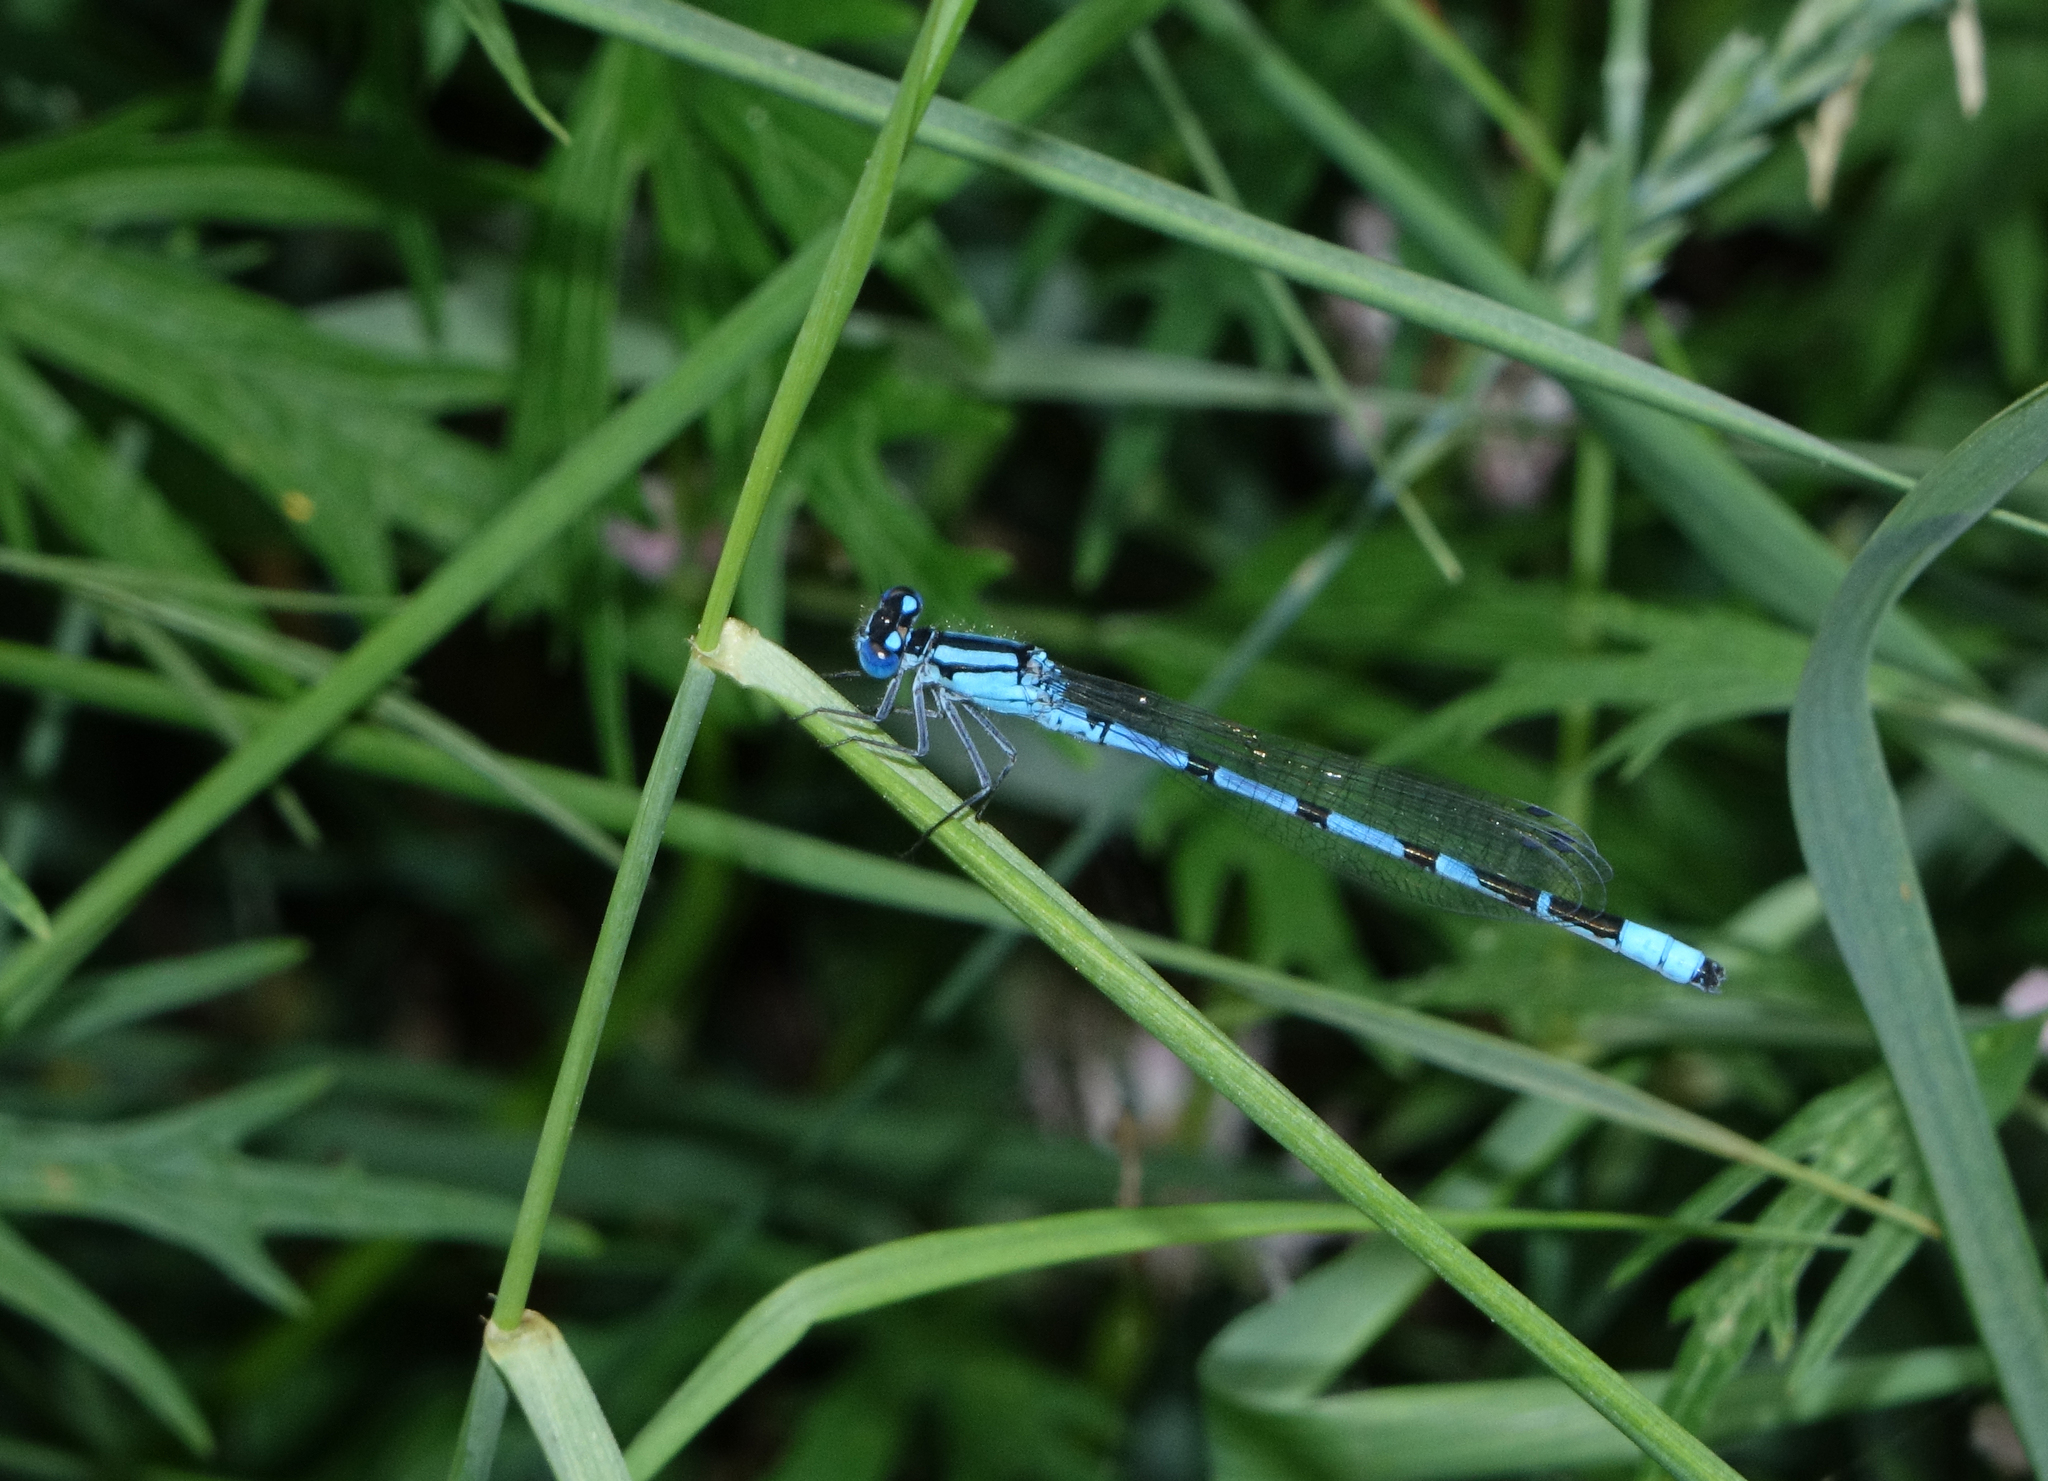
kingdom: Animalia
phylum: Arthropoda
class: Insecta
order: Odonata
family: Coenagrionidae
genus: Enallagma
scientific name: Enallagma cyathigerum
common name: Common blue damselfly
